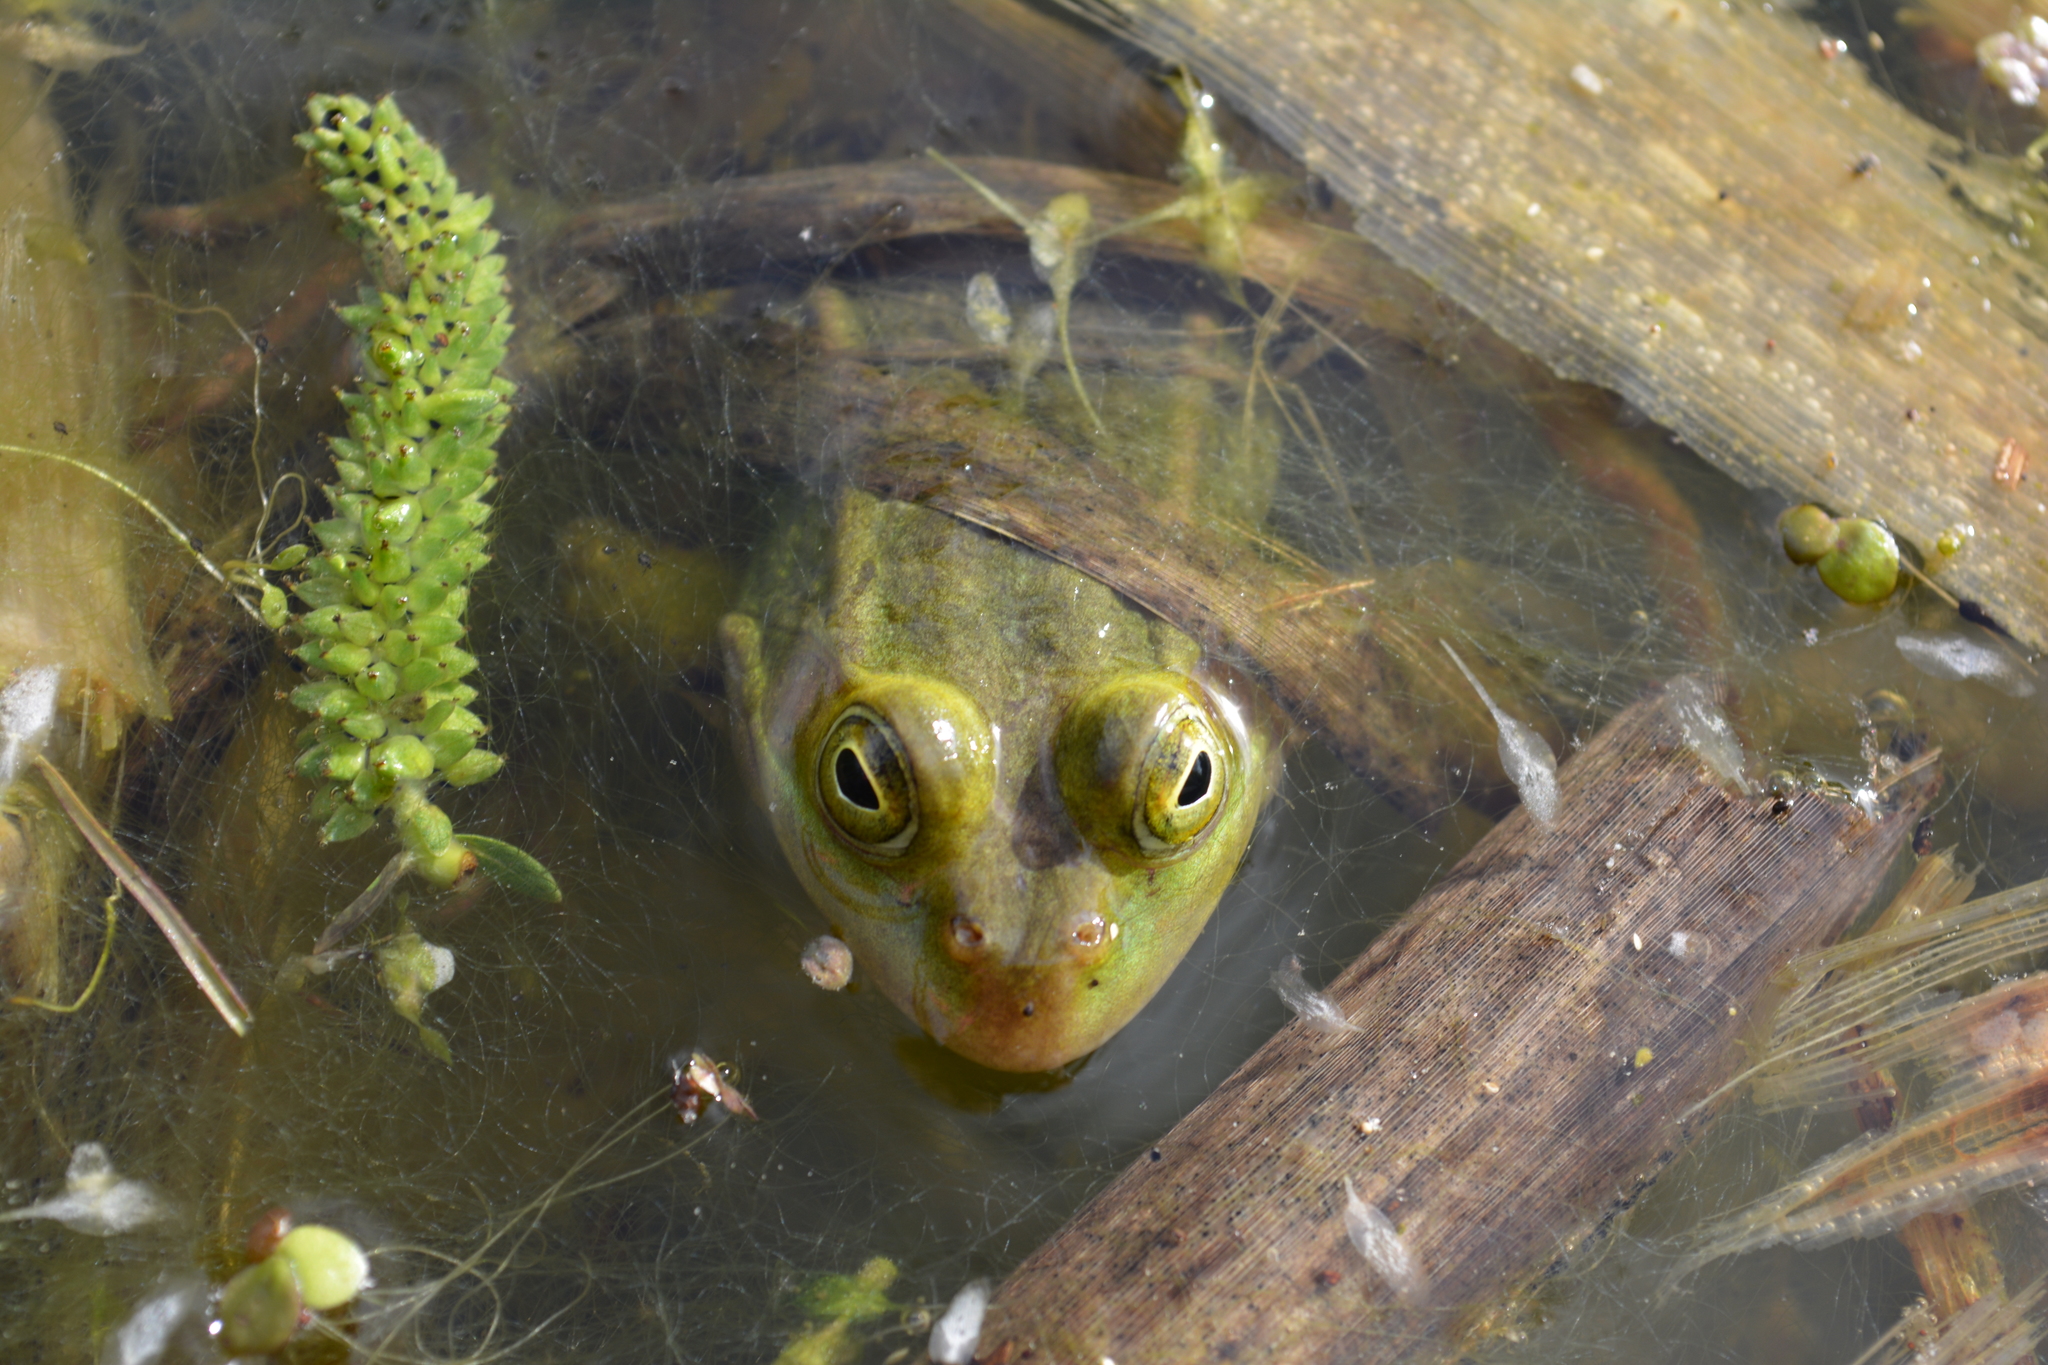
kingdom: Animalia
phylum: Chordata
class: Amphibia
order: Anura
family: Ranidae
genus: Pelophylax
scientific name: Pelophylax lessonae
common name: Pool frog
